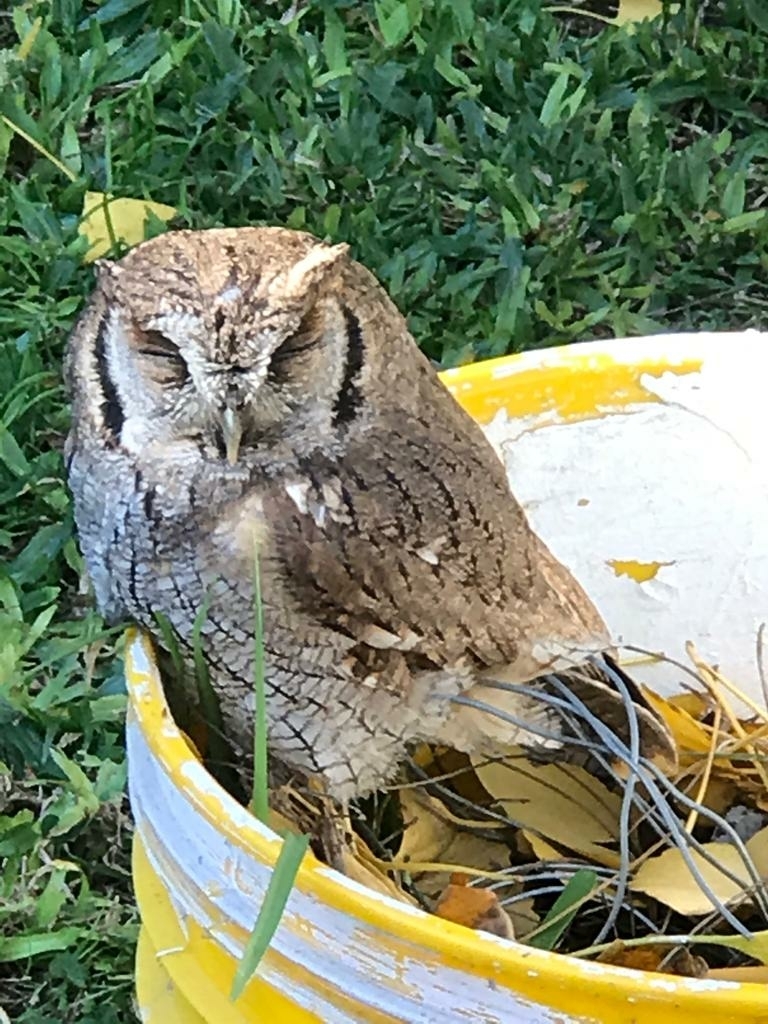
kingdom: Animalia
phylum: Chordata
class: Aves
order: Strigiformes
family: Strigidae
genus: Megascops
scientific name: Megascops choliba
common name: Tropical screech-owl
